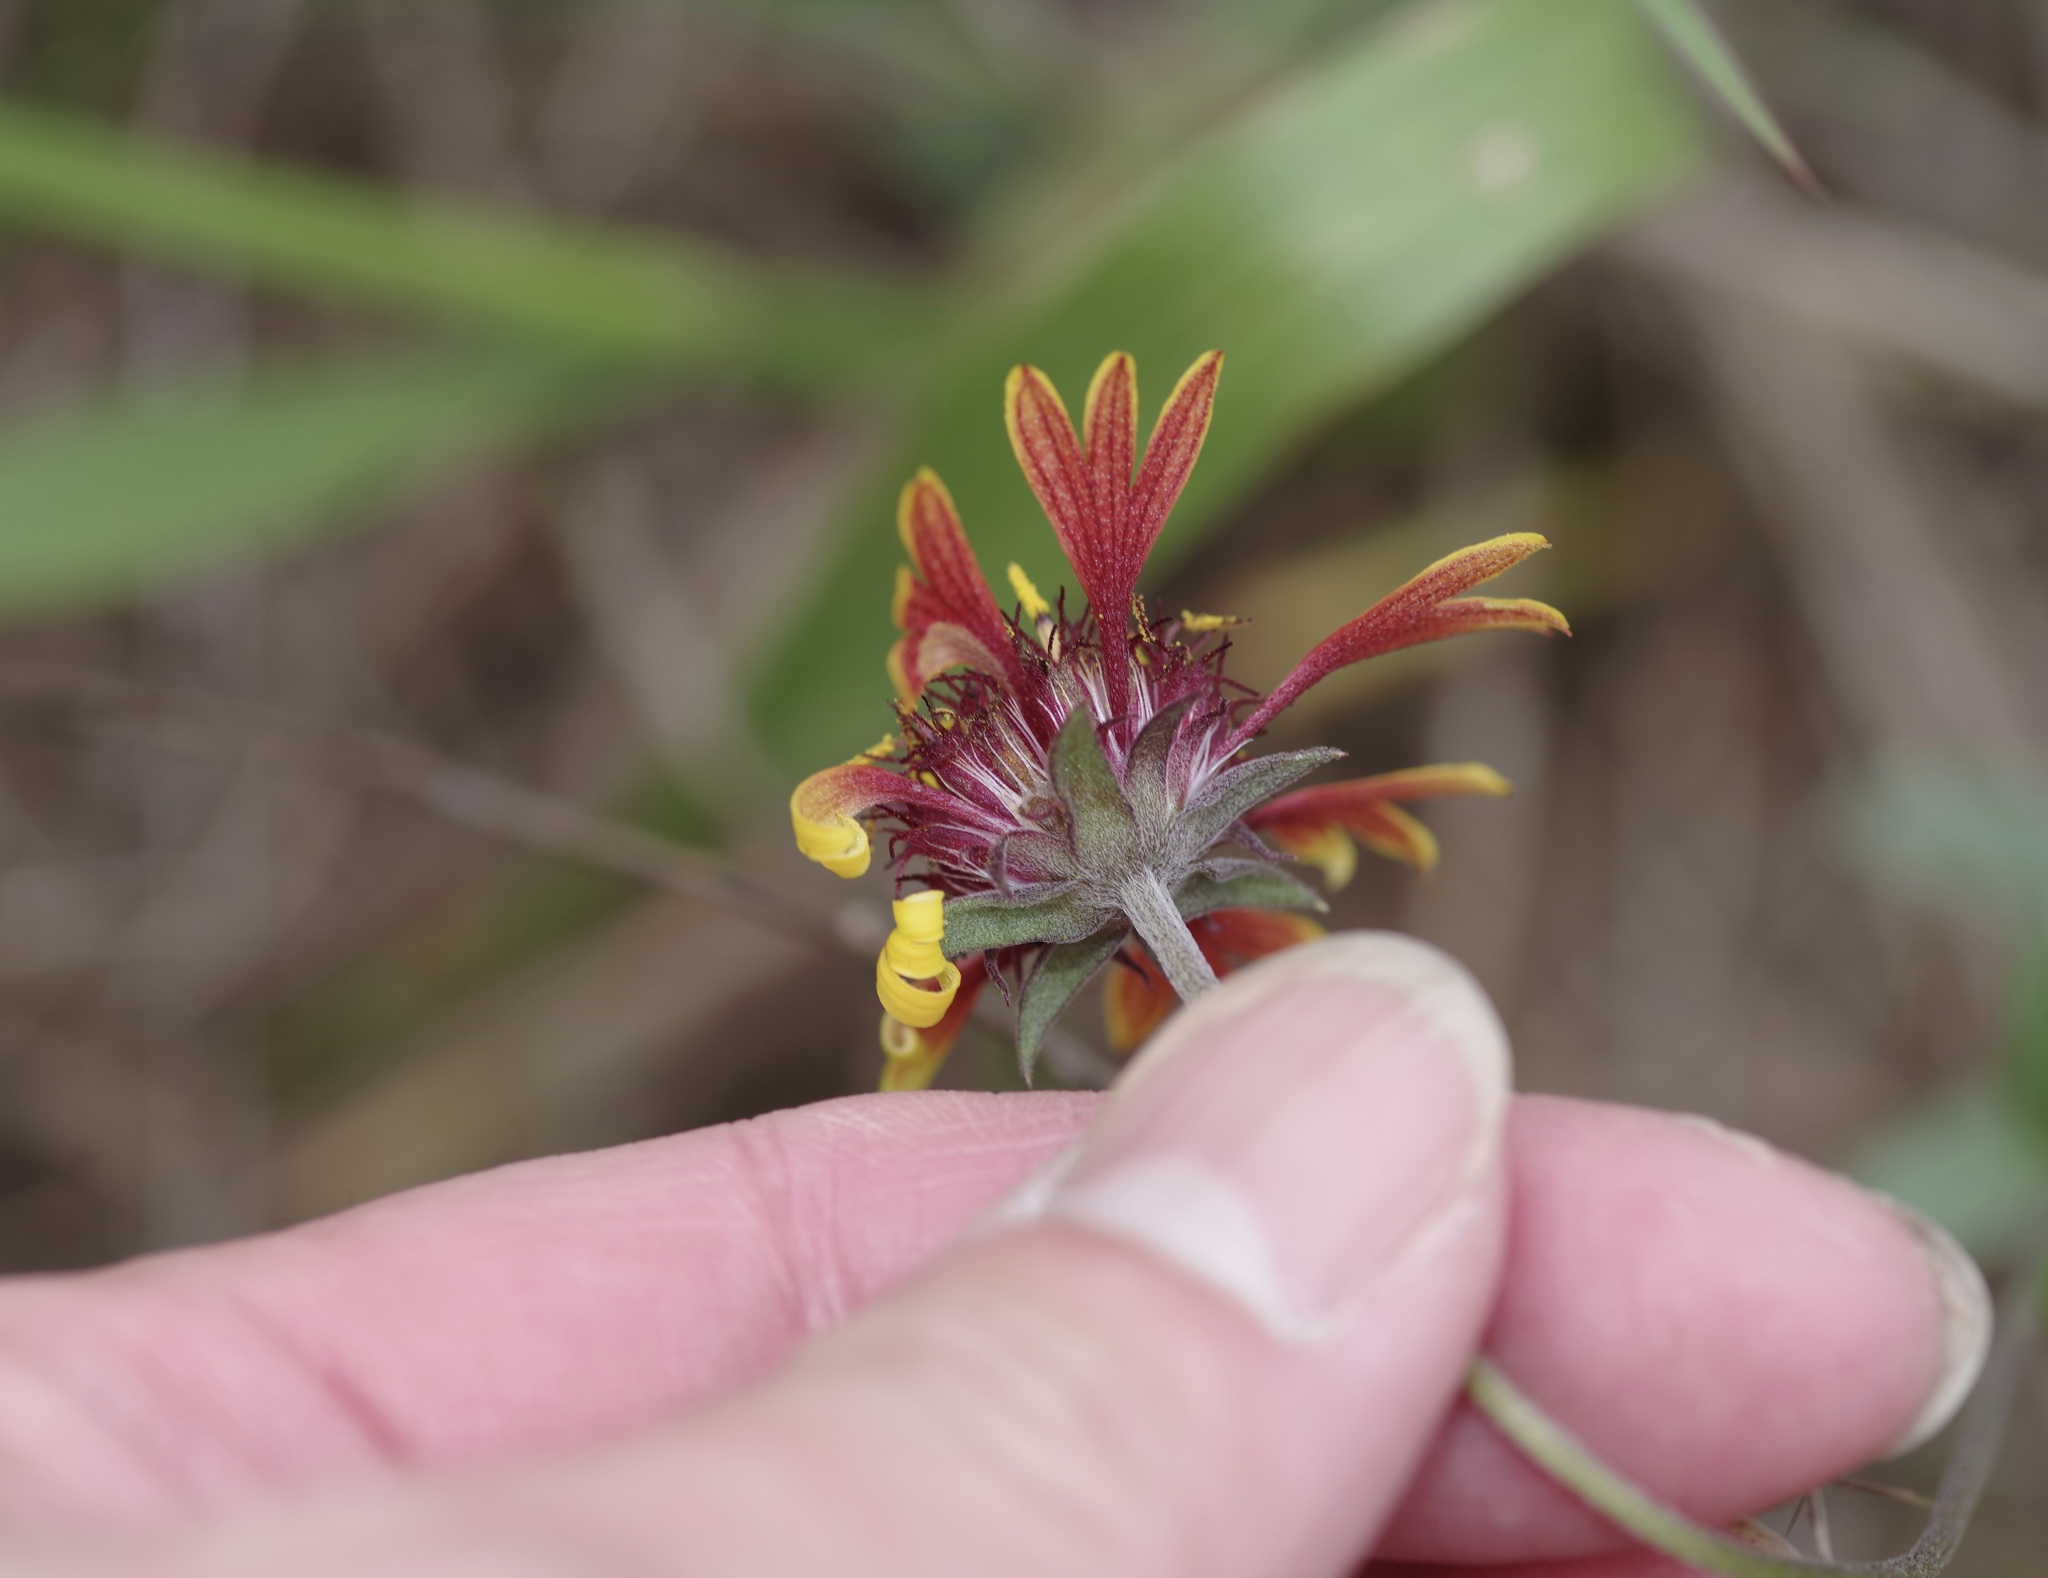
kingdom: Plantae
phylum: Tracheophyta
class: Magnoliopsida
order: Asterales
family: Asteraceae
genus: Gaillardia
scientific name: Gaillardia aestivalis
